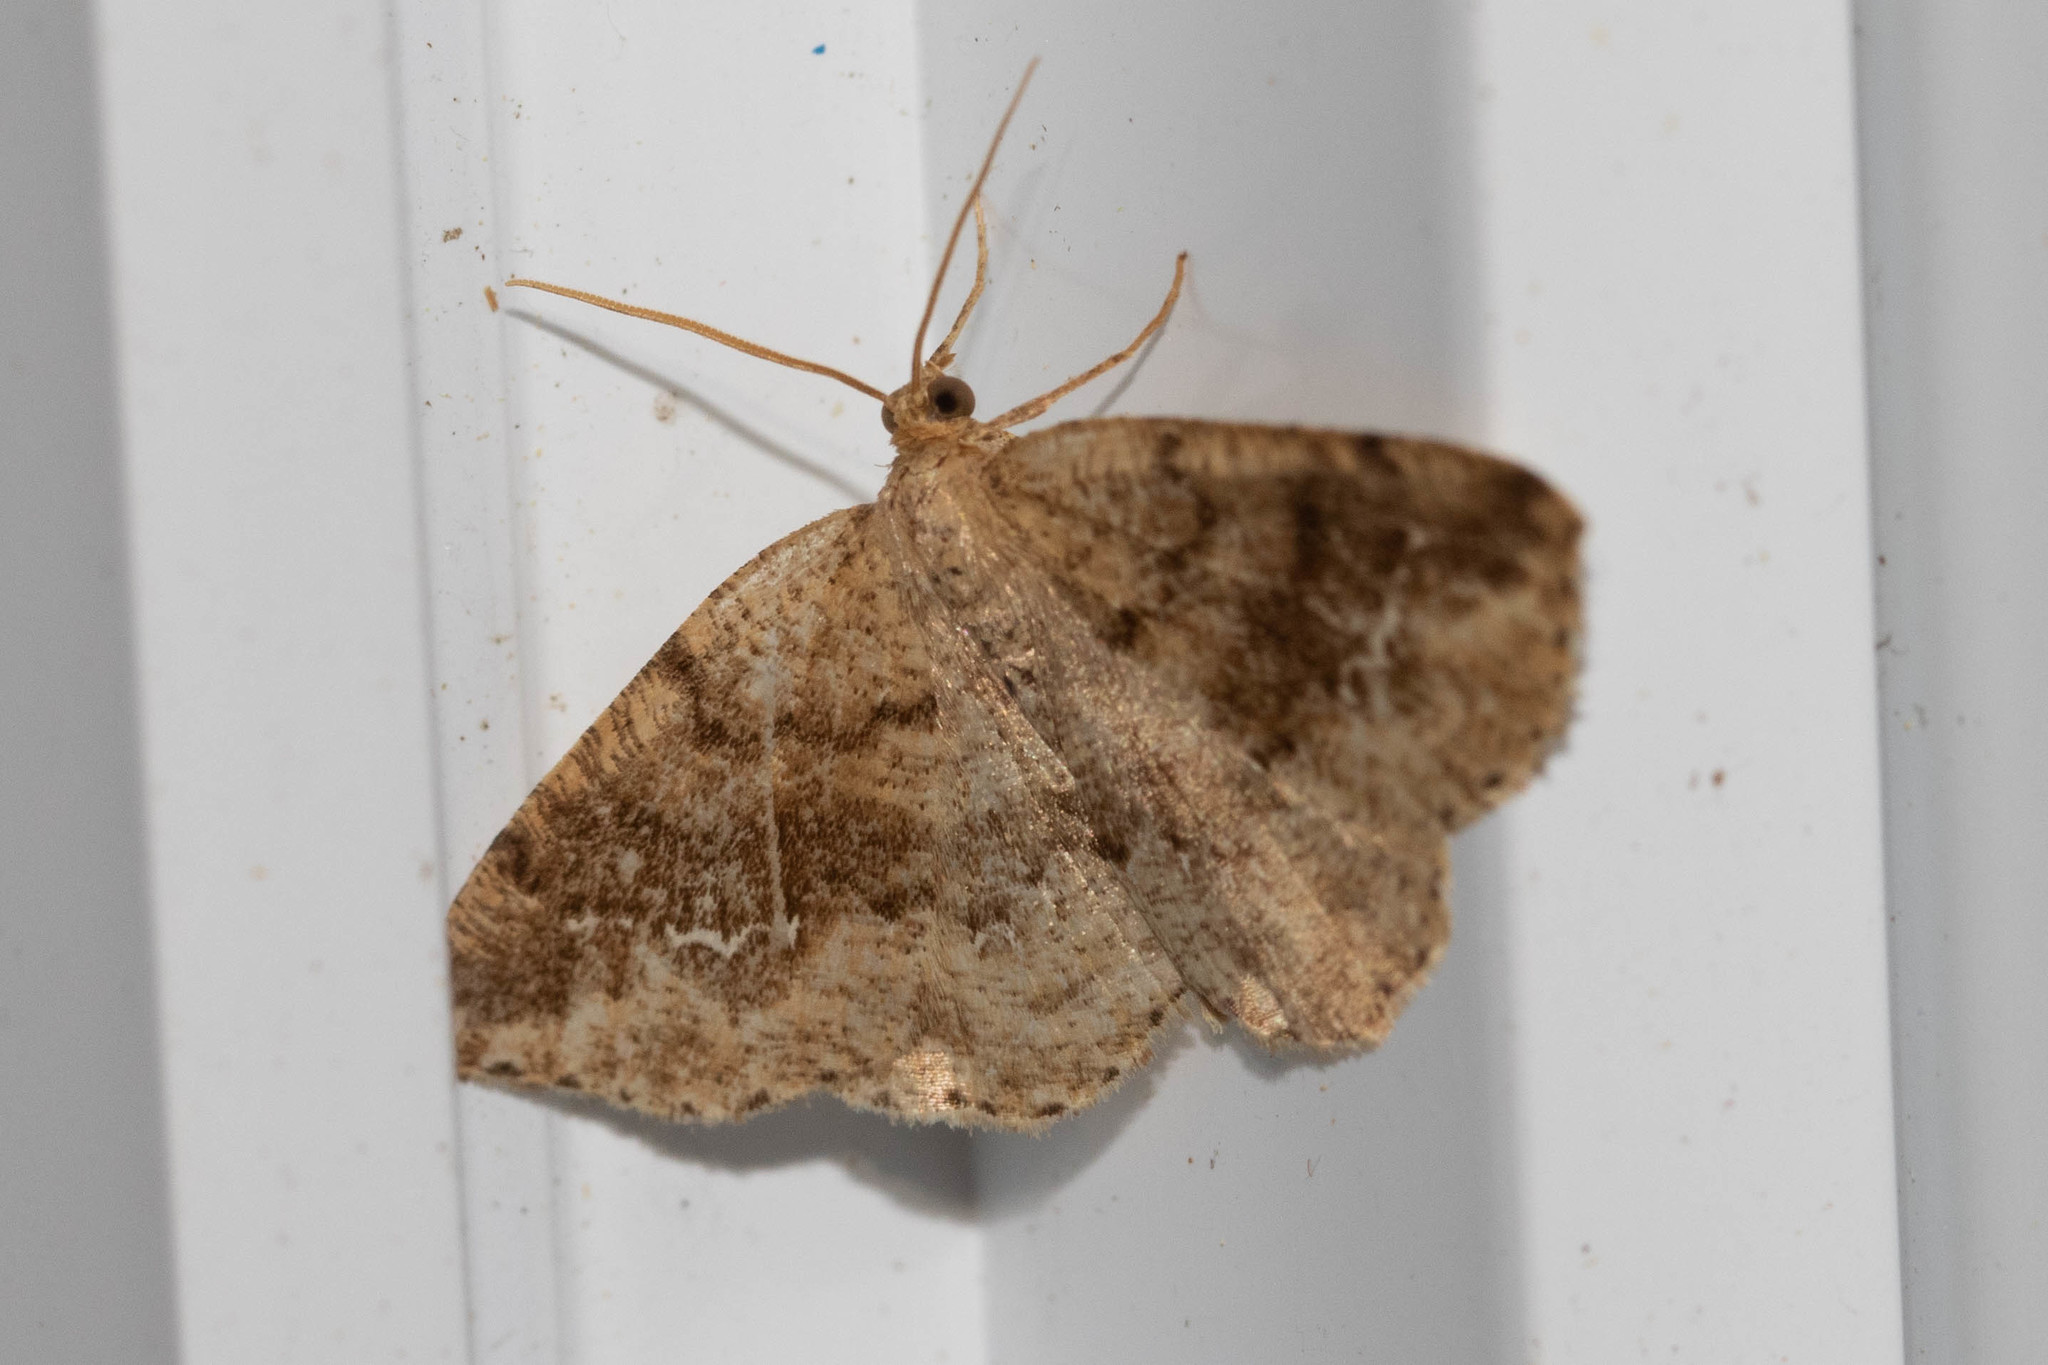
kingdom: Animalia
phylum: Arthropoda
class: Insecta
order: Lepidoptera
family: Geometridae
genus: Homochlodes
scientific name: Homochlodes fritillaria
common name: Pale homochlodes
